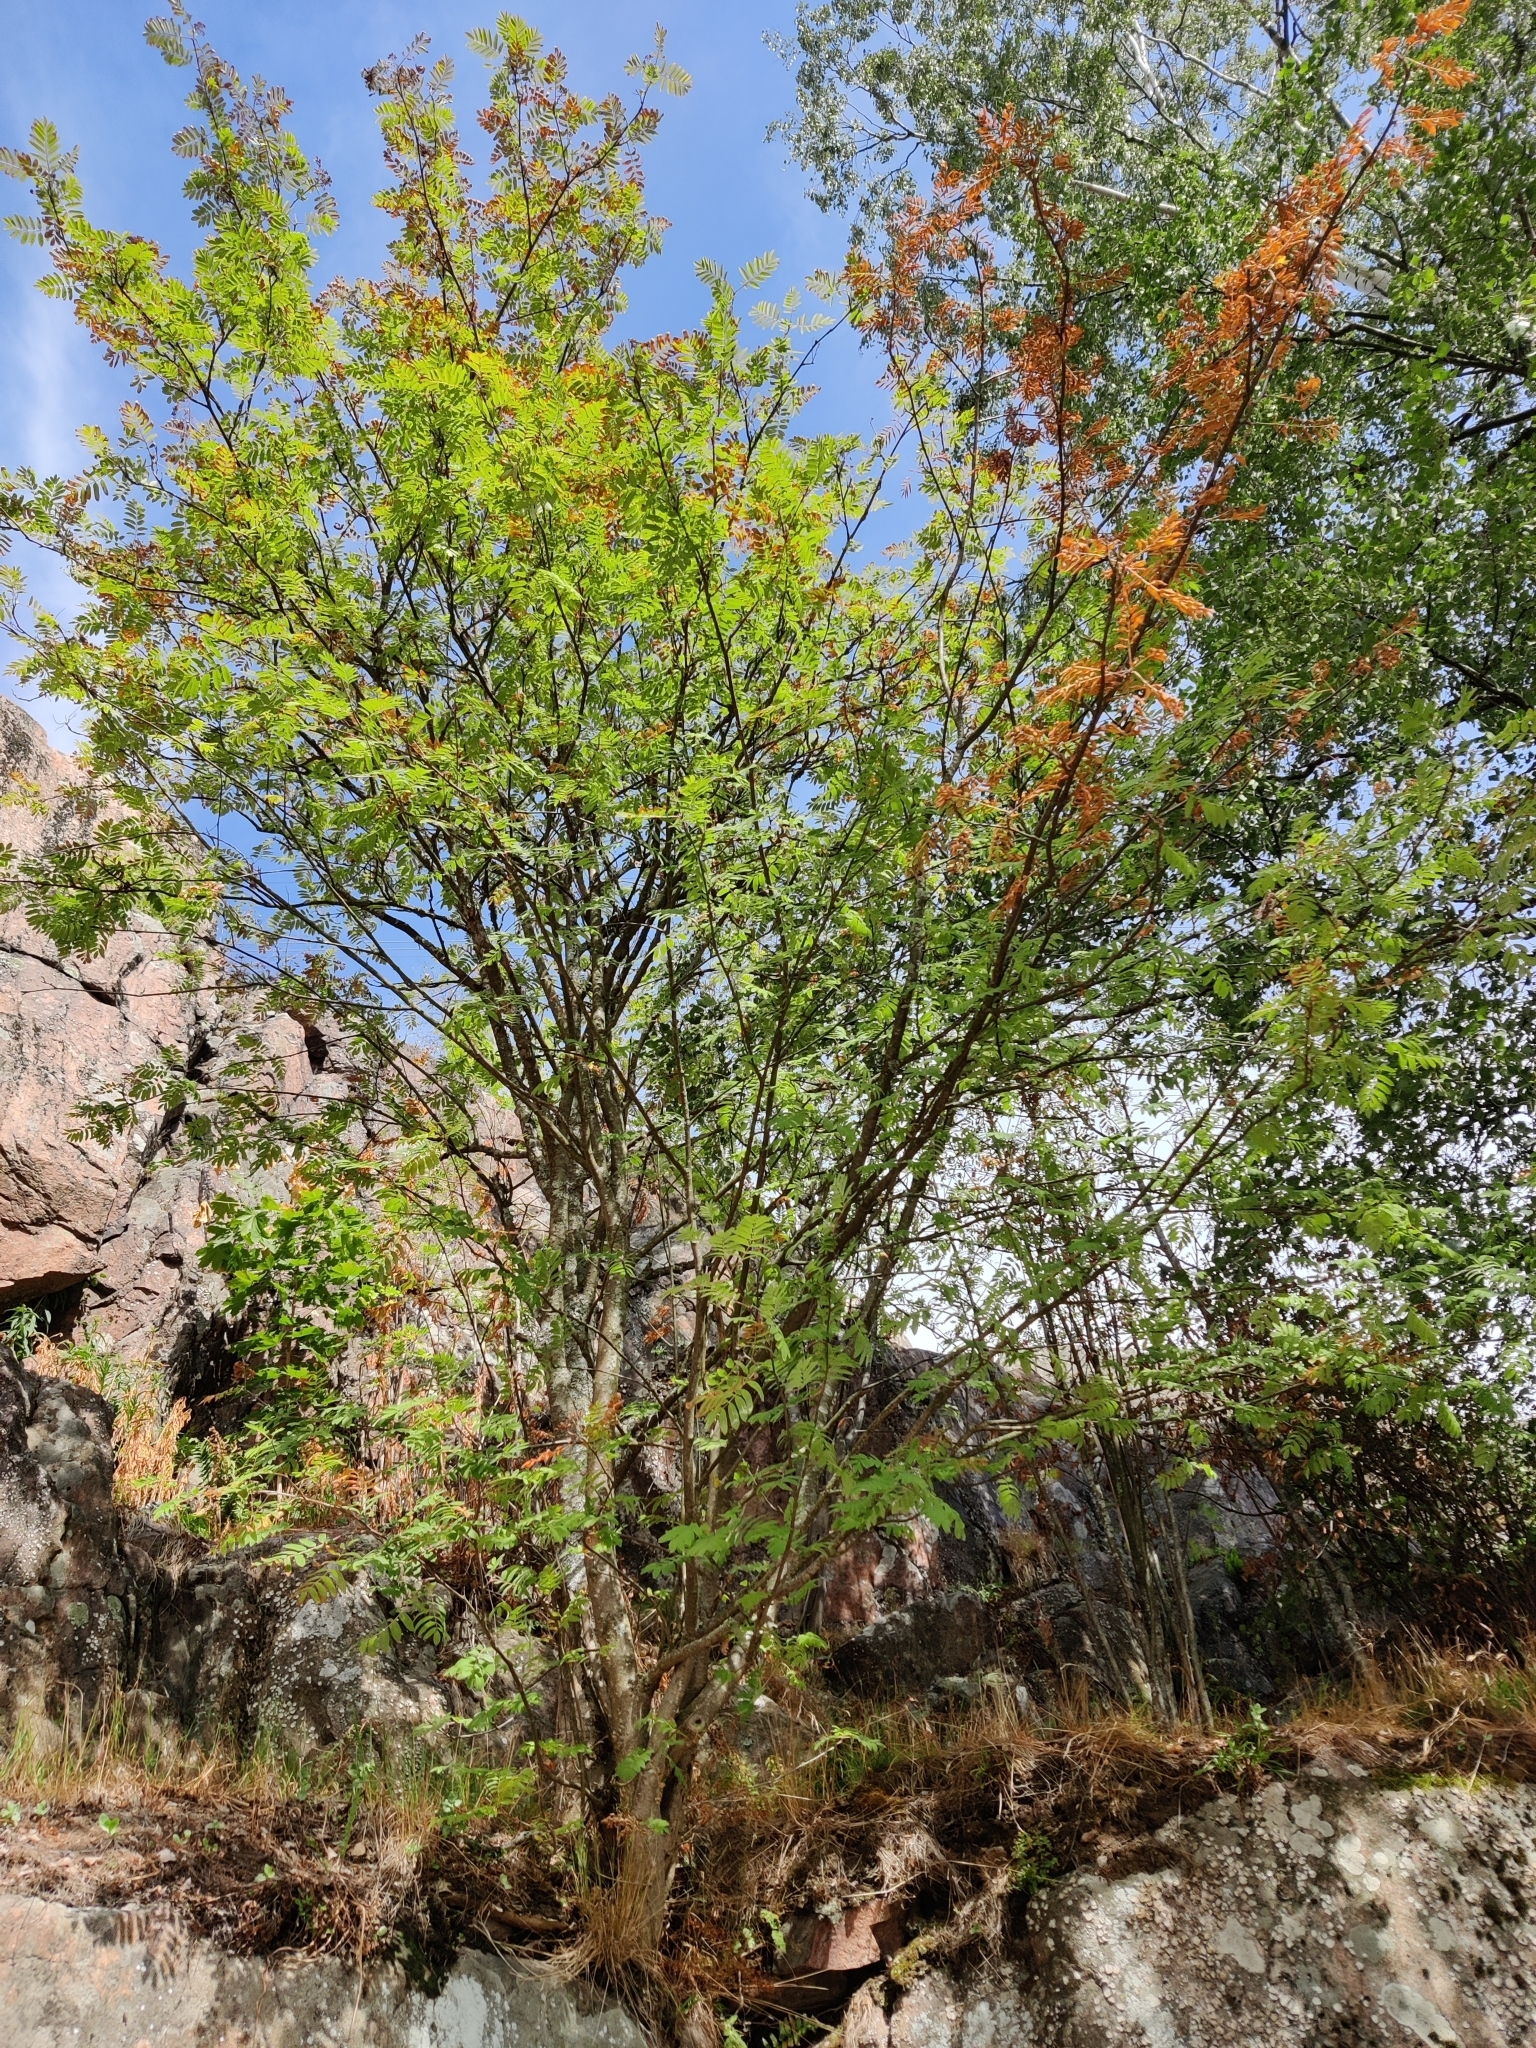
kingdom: Plantae
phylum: Tracheophyta
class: Magnoliopsida
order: Rosales
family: Rosaceae
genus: Sorbus
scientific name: Sorbus aucuparia
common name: Rowan
